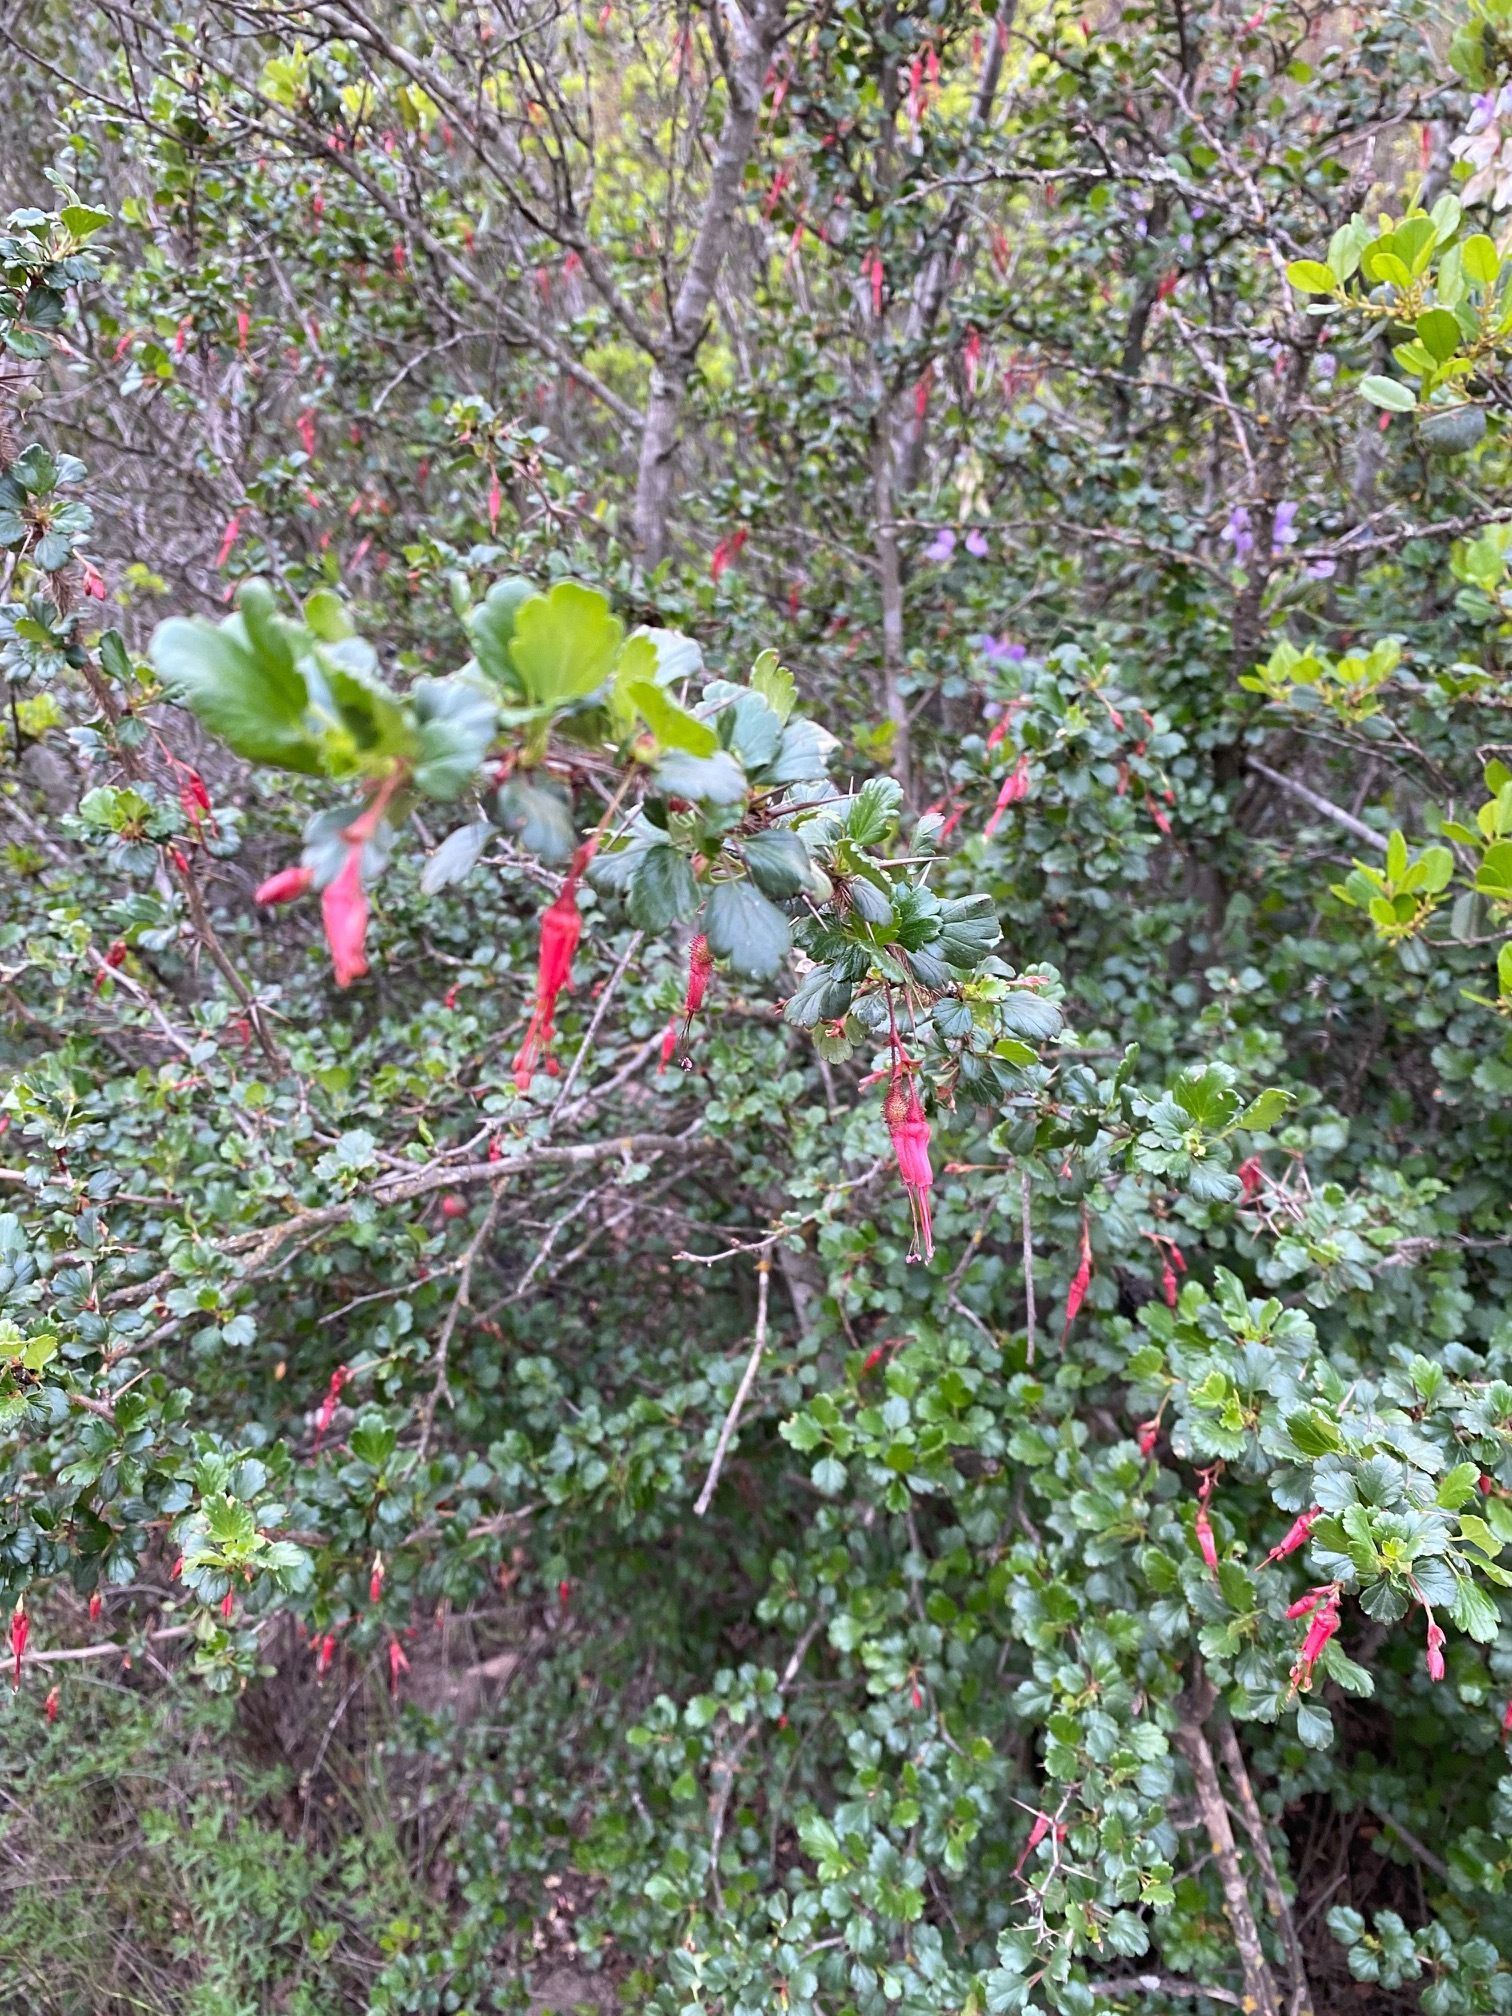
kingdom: Plantae
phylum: Tracheophyta
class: Magnoliopsida
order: Saxifragales
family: Grossulariaceae
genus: Ribes
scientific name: Ribes speciosum
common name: Fuchsia-flower gooseberry
